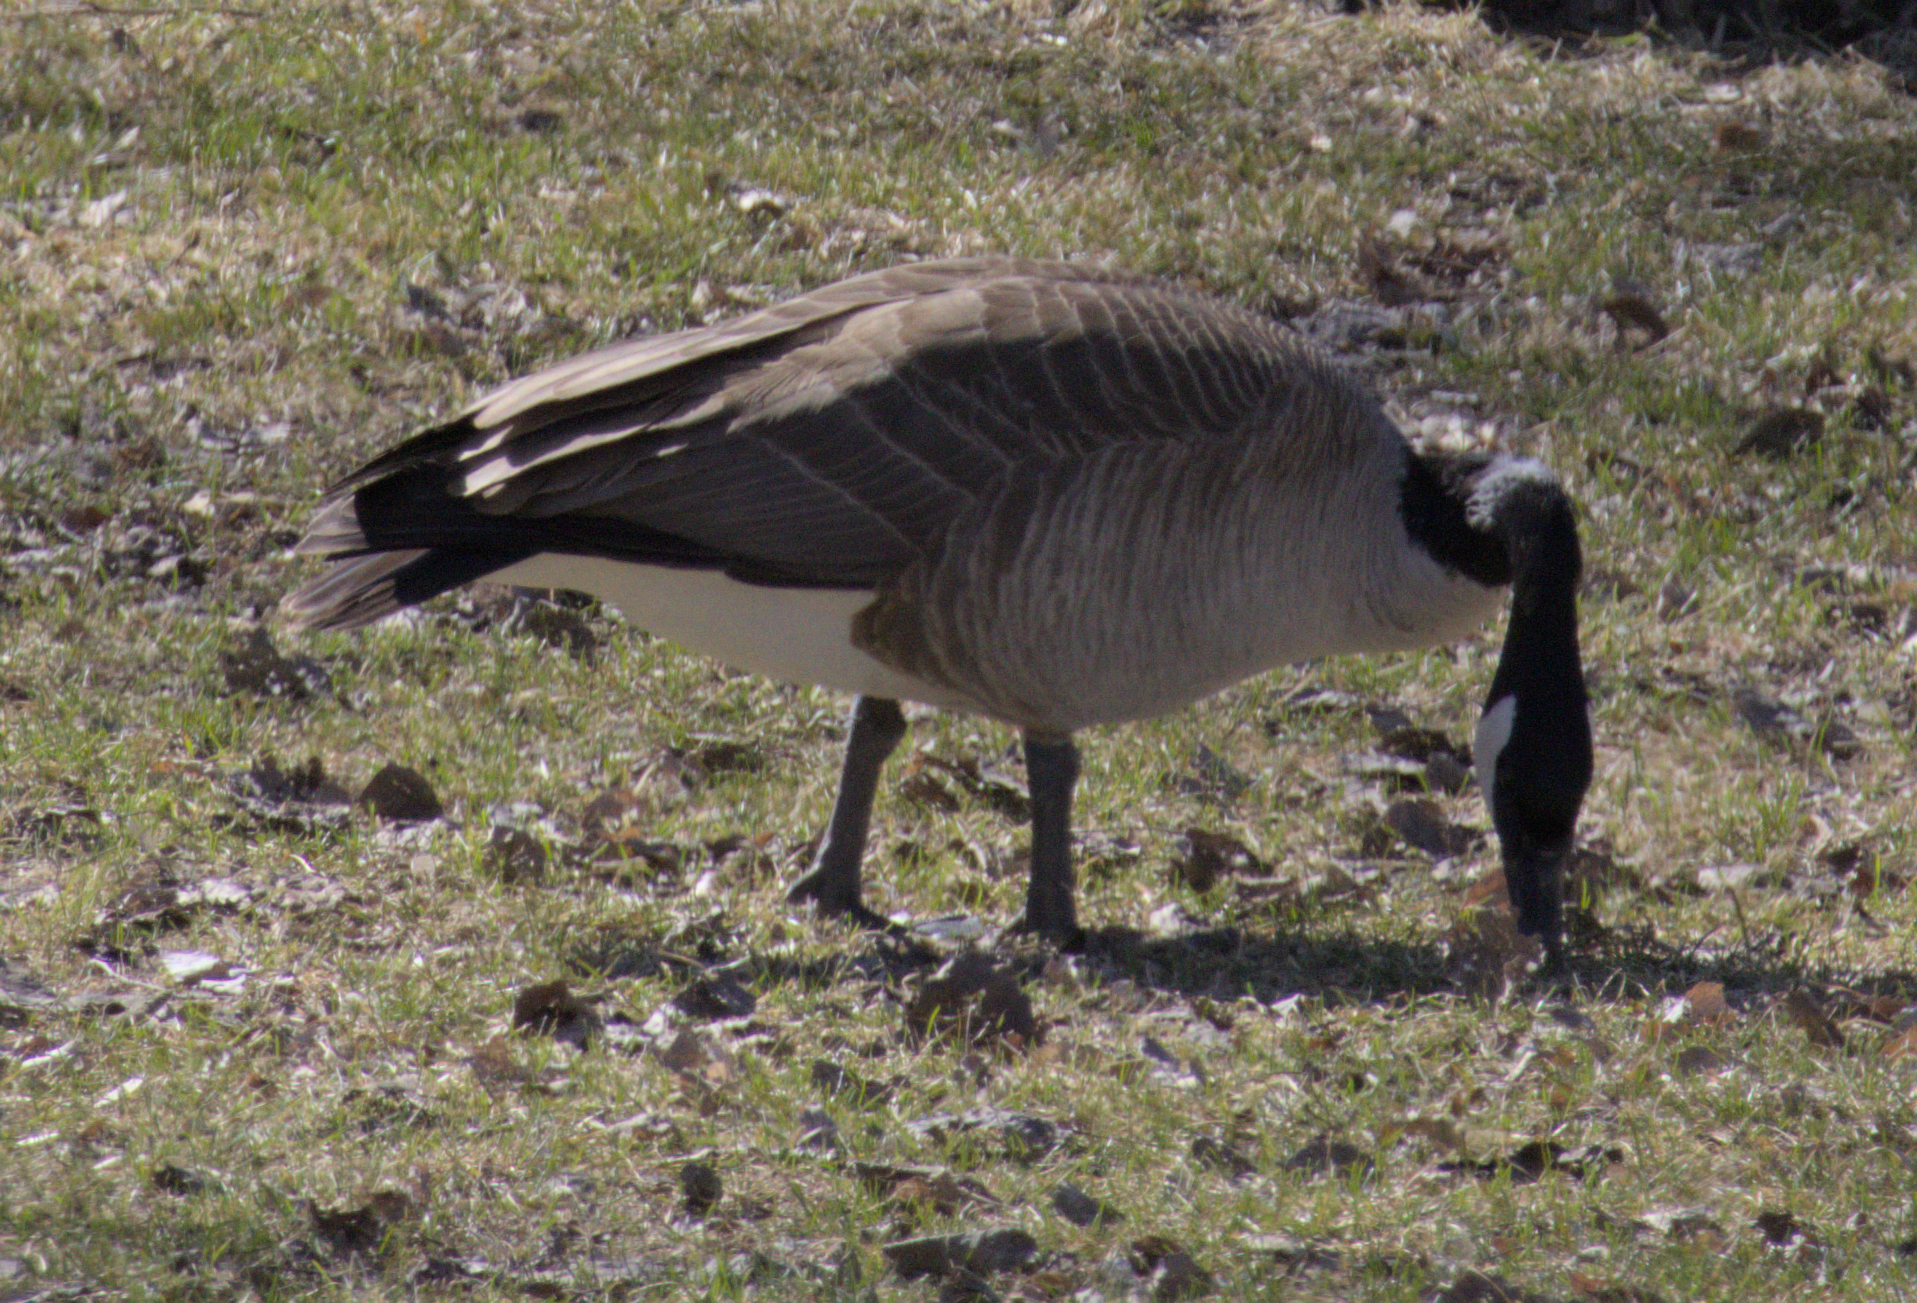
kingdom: Animalia
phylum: Chordata
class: Aves
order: Anseriformes
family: Anatidae
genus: Branta
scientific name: Branta canadensis
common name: Canada goose
